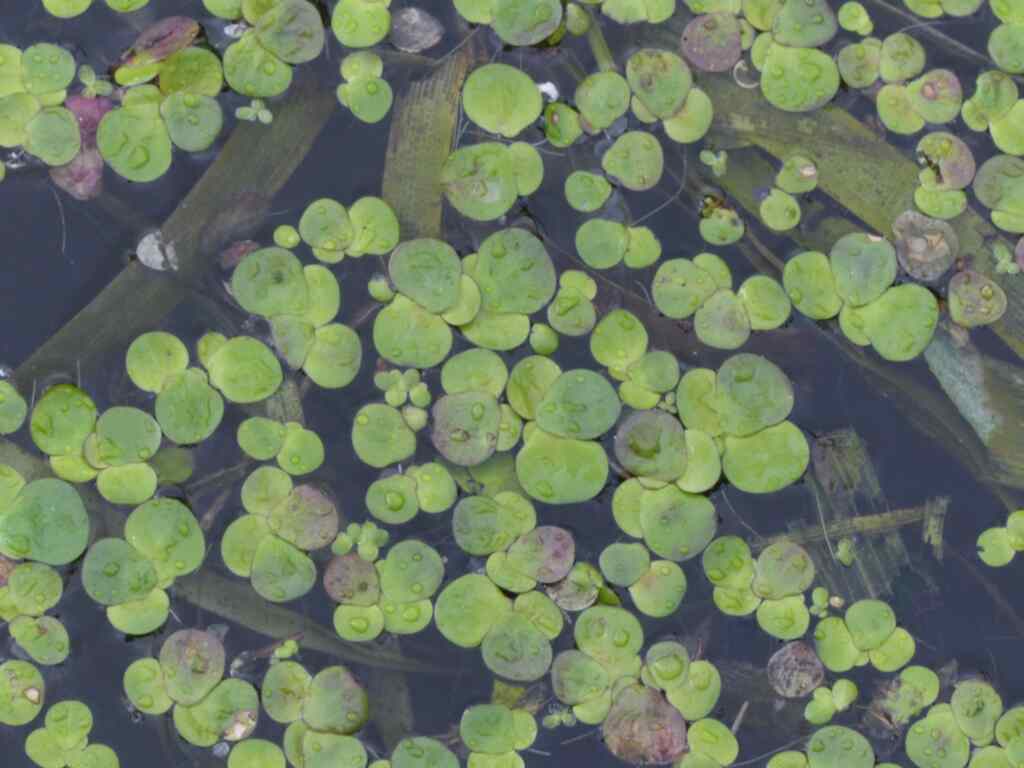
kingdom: Plantae
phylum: Tracheophyta
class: Liliopsida
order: Alismatales
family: Araceae
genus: Spirodela
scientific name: Spirodela polyrhiza
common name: Great duckweed
